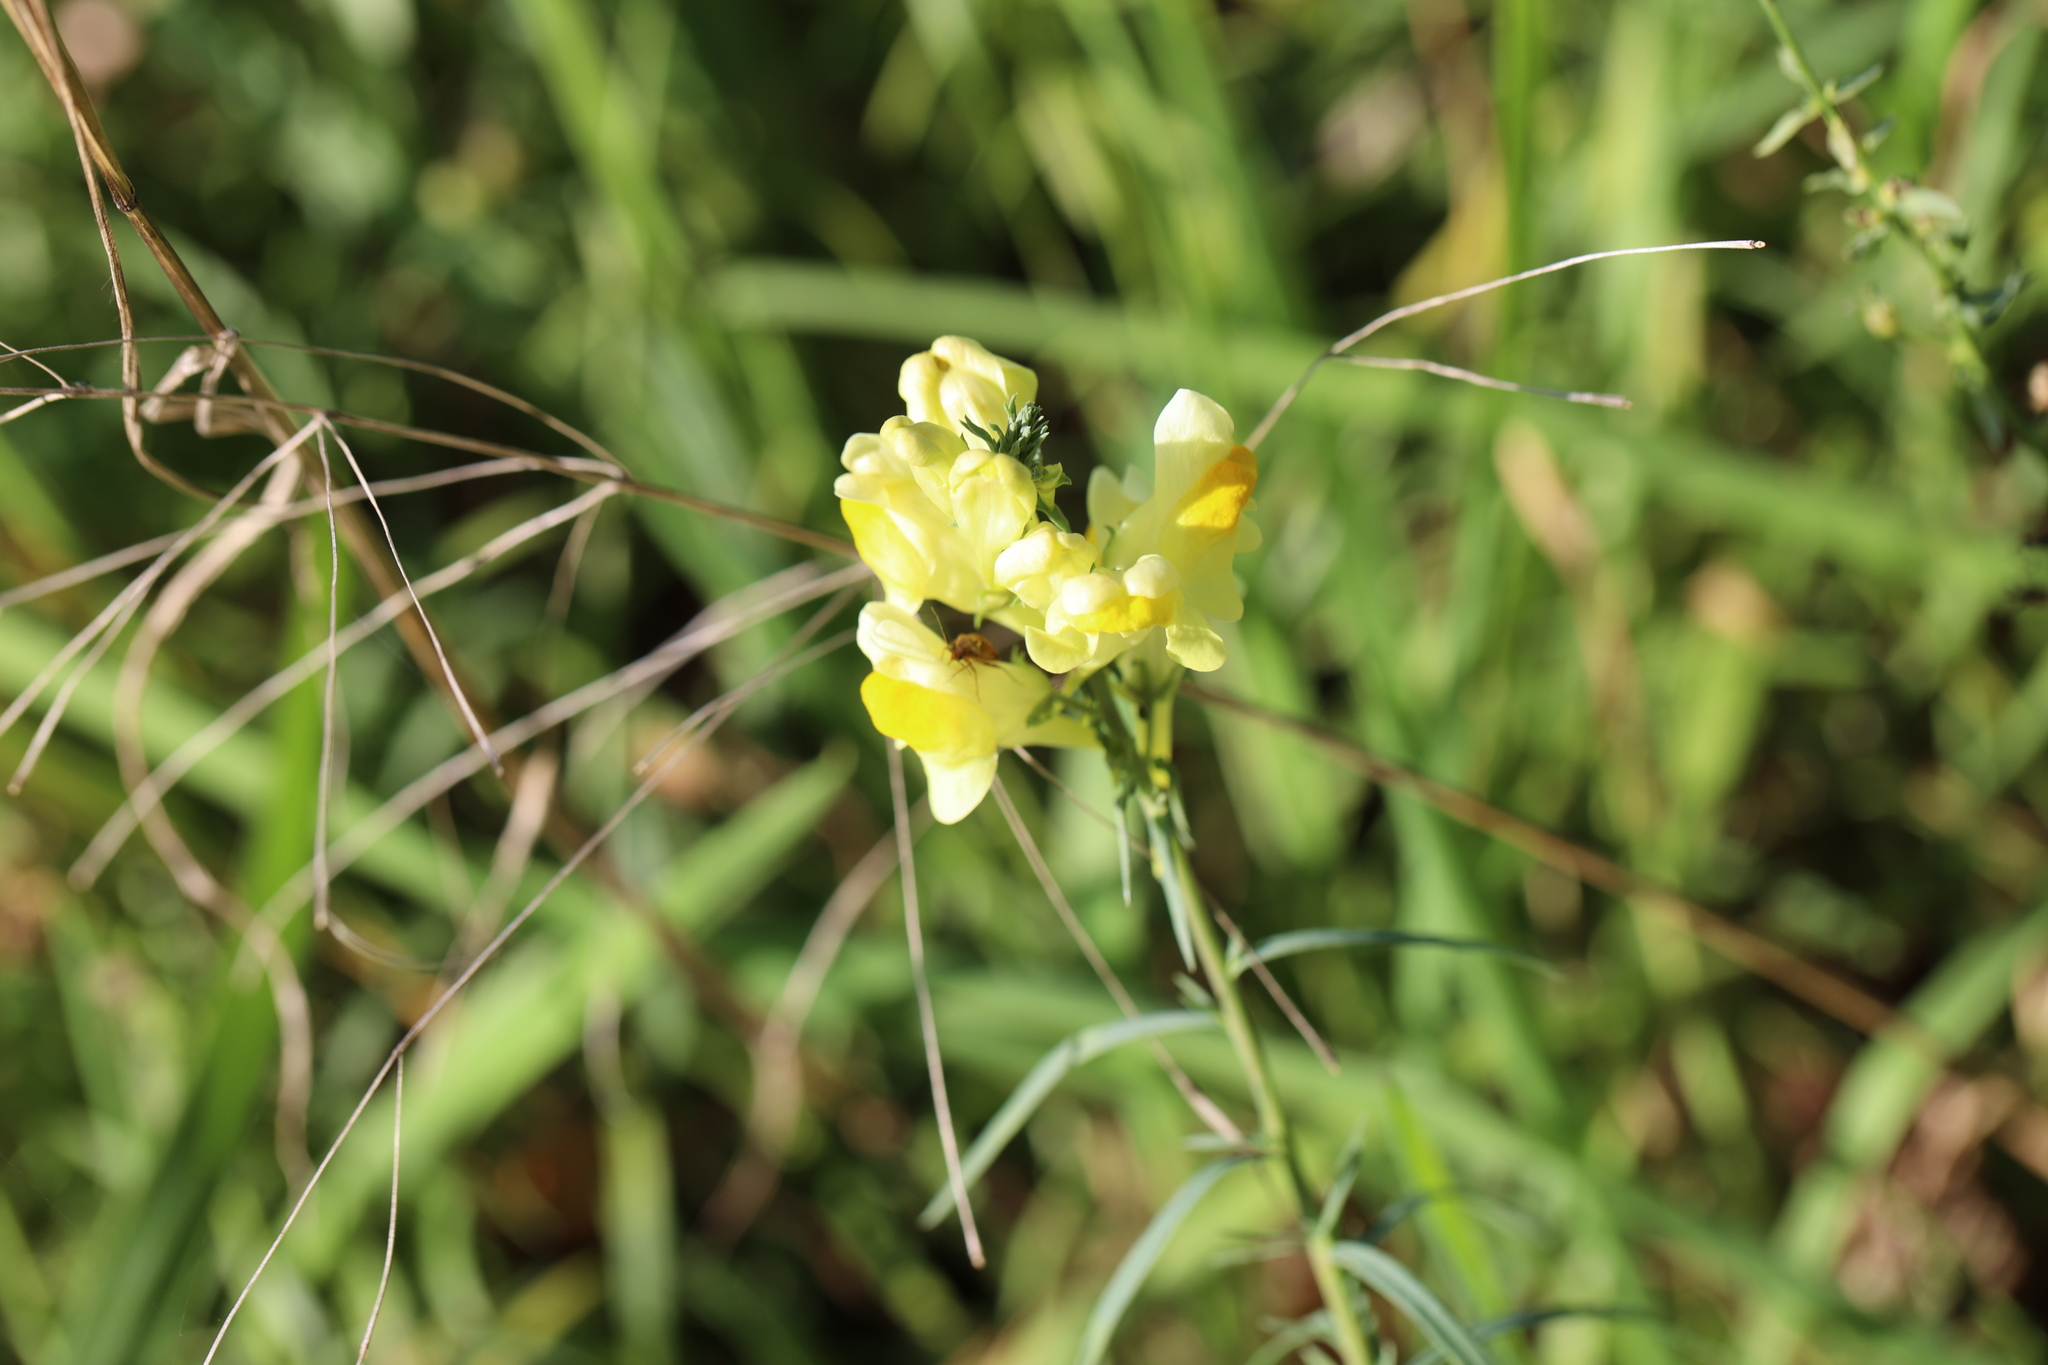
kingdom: Plantae
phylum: Tracheophyta
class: Magnoliopsida
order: Lamiales
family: Plantaginaceae
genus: Linaria
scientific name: Linaria vulgaris
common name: Butter and eggs
